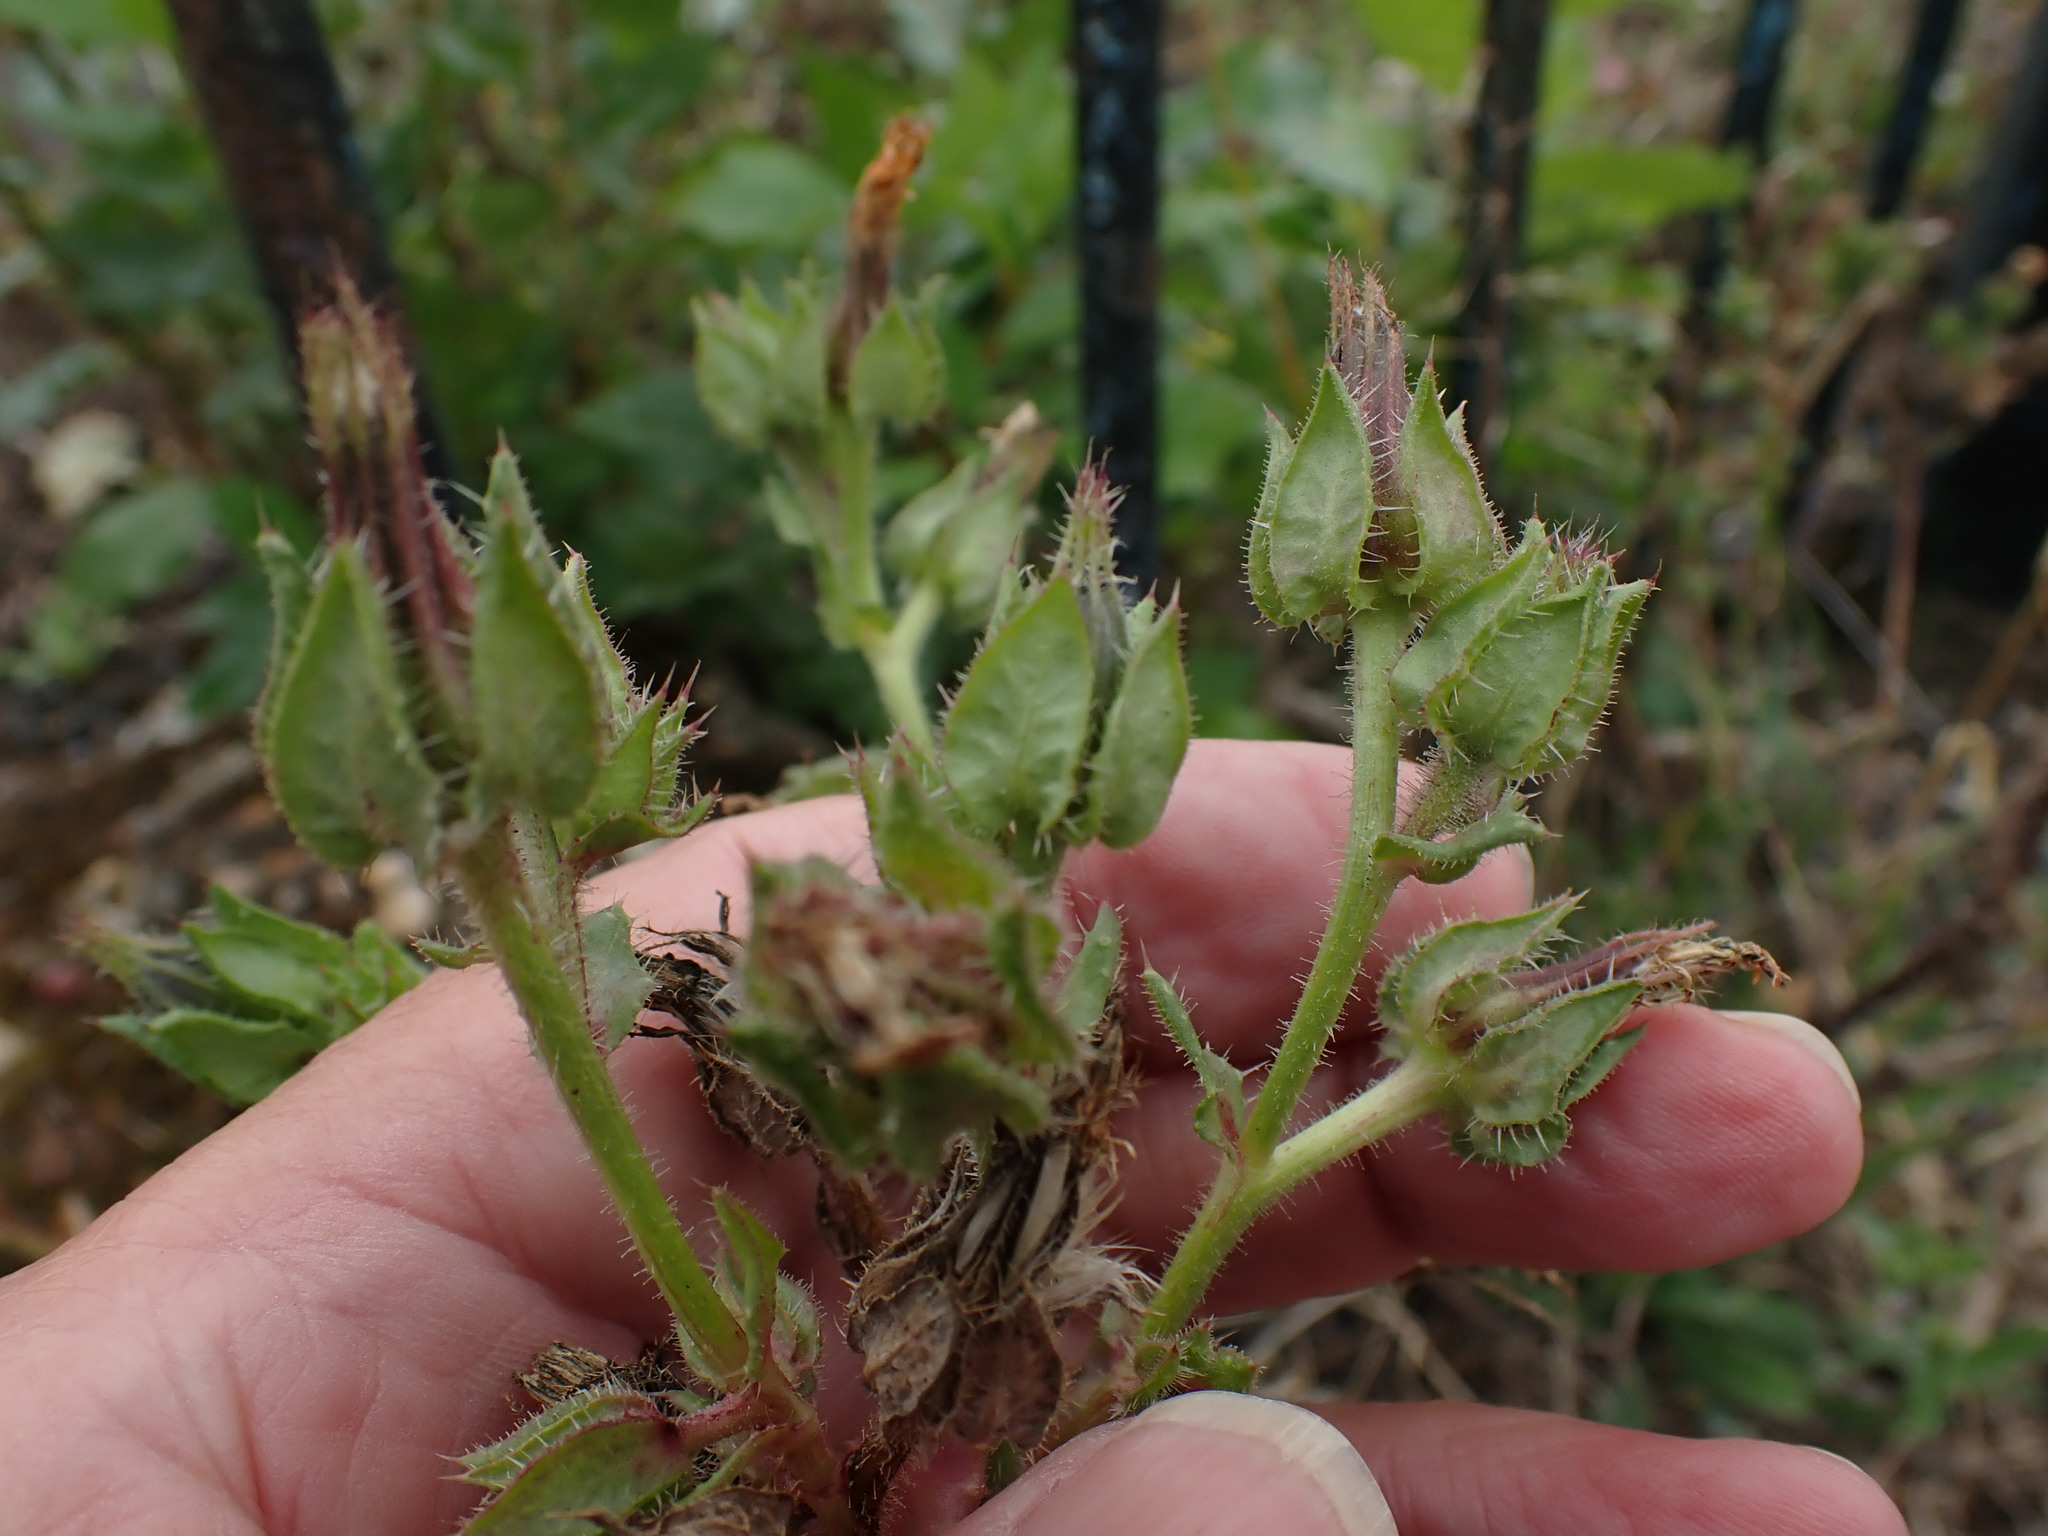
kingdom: Plantae
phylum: Tracheophyta
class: Magnoliopsida
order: Asterales
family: Asteraceae
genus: Helminthotheca
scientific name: Helminthotheca echioides
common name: Ox-tongue
